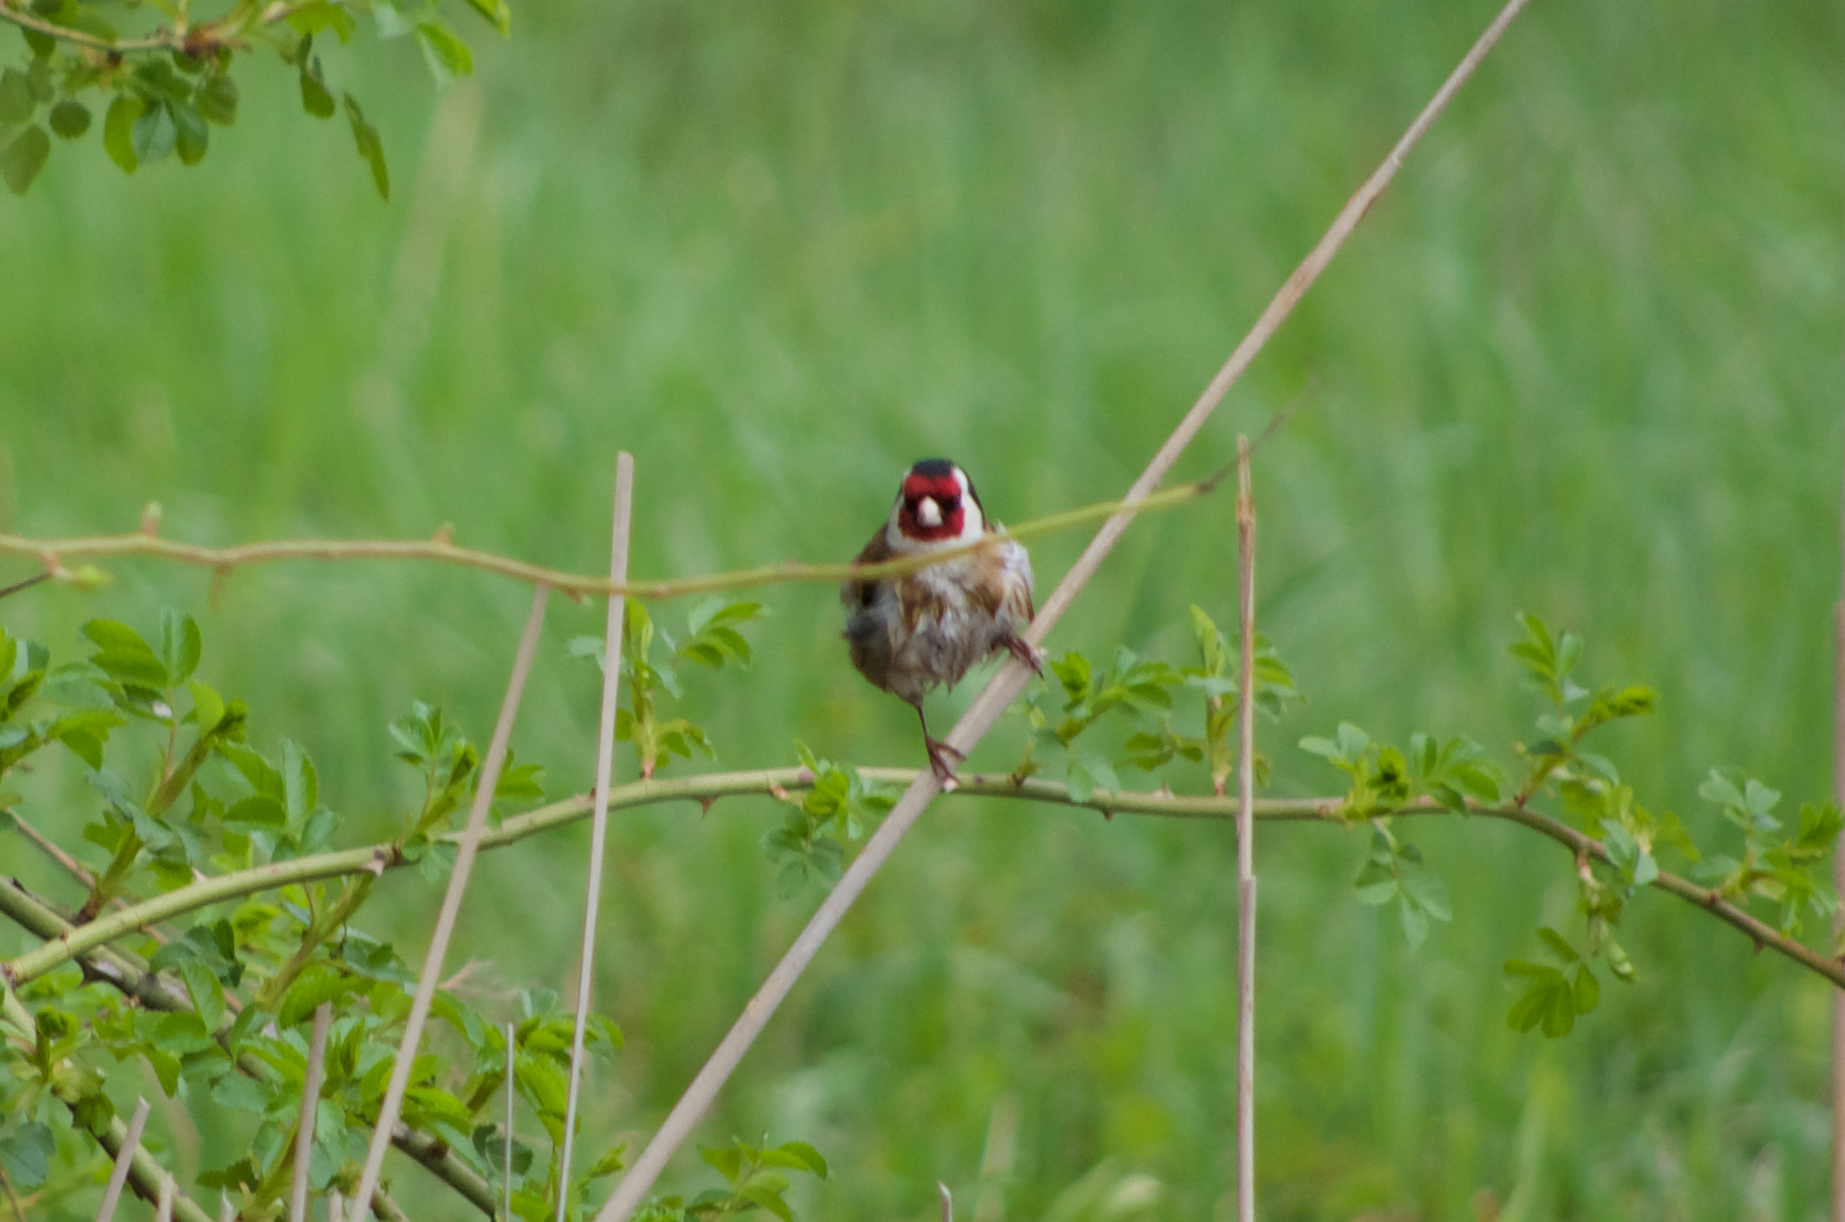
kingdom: Animalia
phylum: Chordata
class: Aves
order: Passeriformes
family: Fringillidae
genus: Carduelis
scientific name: Carduelis carduelis
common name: European goldfinch
